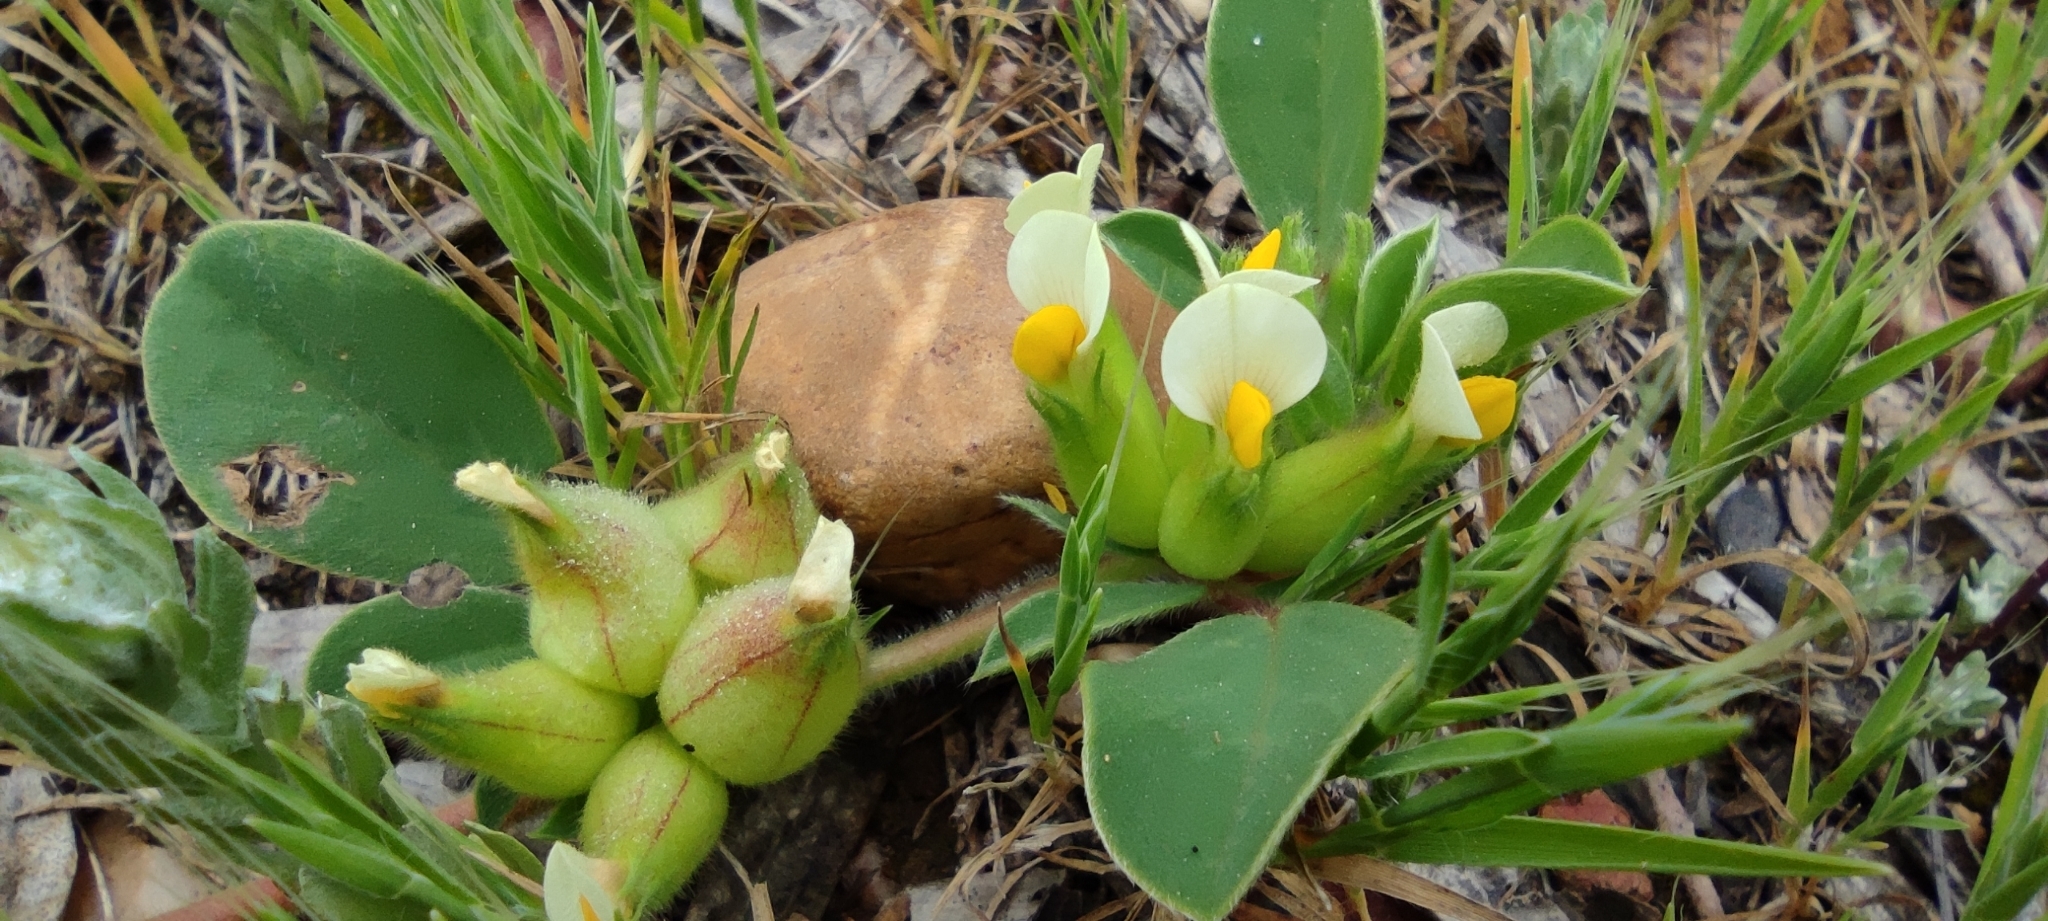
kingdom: Plantae
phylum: Tracheophyta
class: Magnoliopsida
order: Fabales
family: Fabaceae
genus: Tripodion
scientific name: Tripodion tetraphyllum
